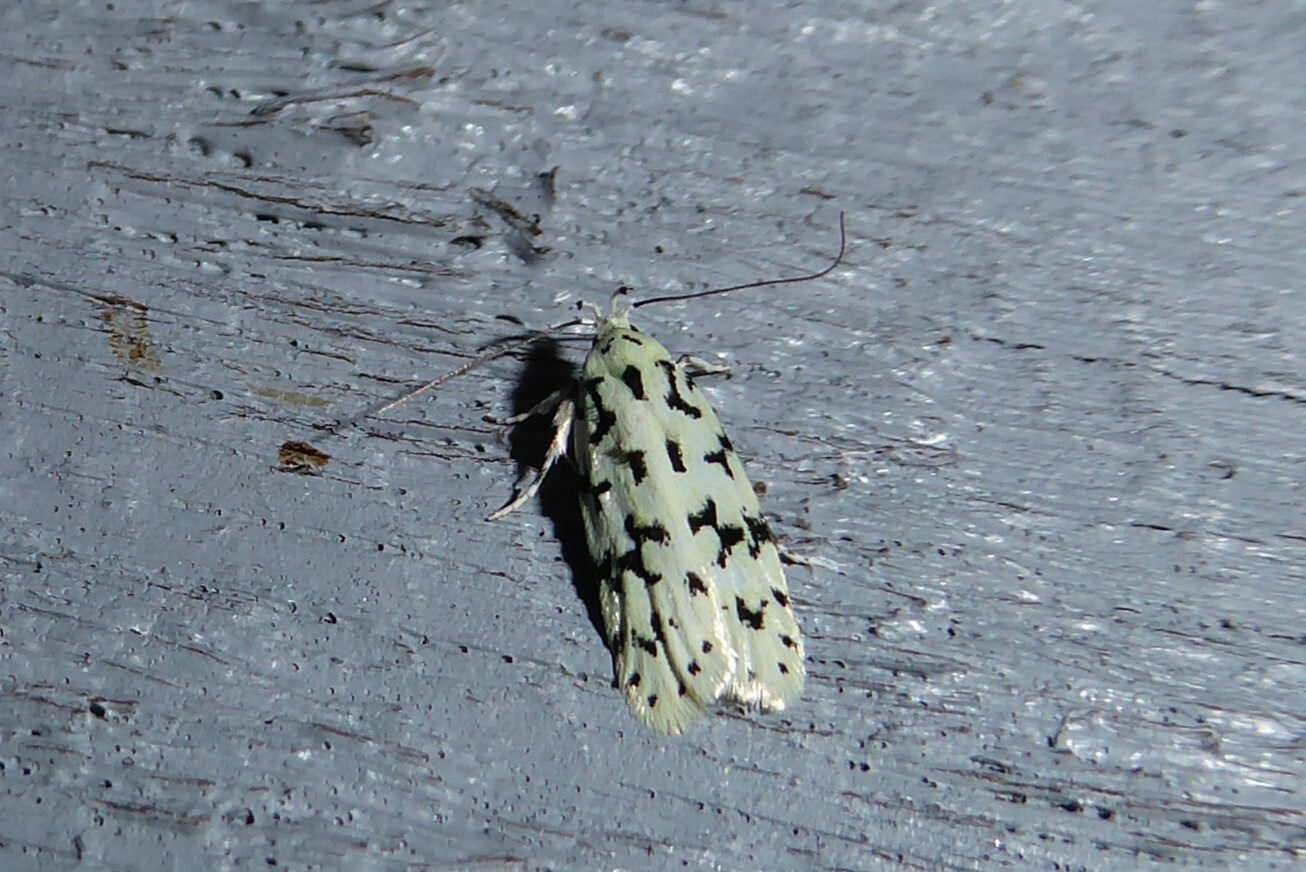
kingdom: Animalia
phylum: Arthropoda
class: Insecta
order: Lepidoptera
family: Oecophoridae
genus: Izatha
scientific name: Izatha huttoni
